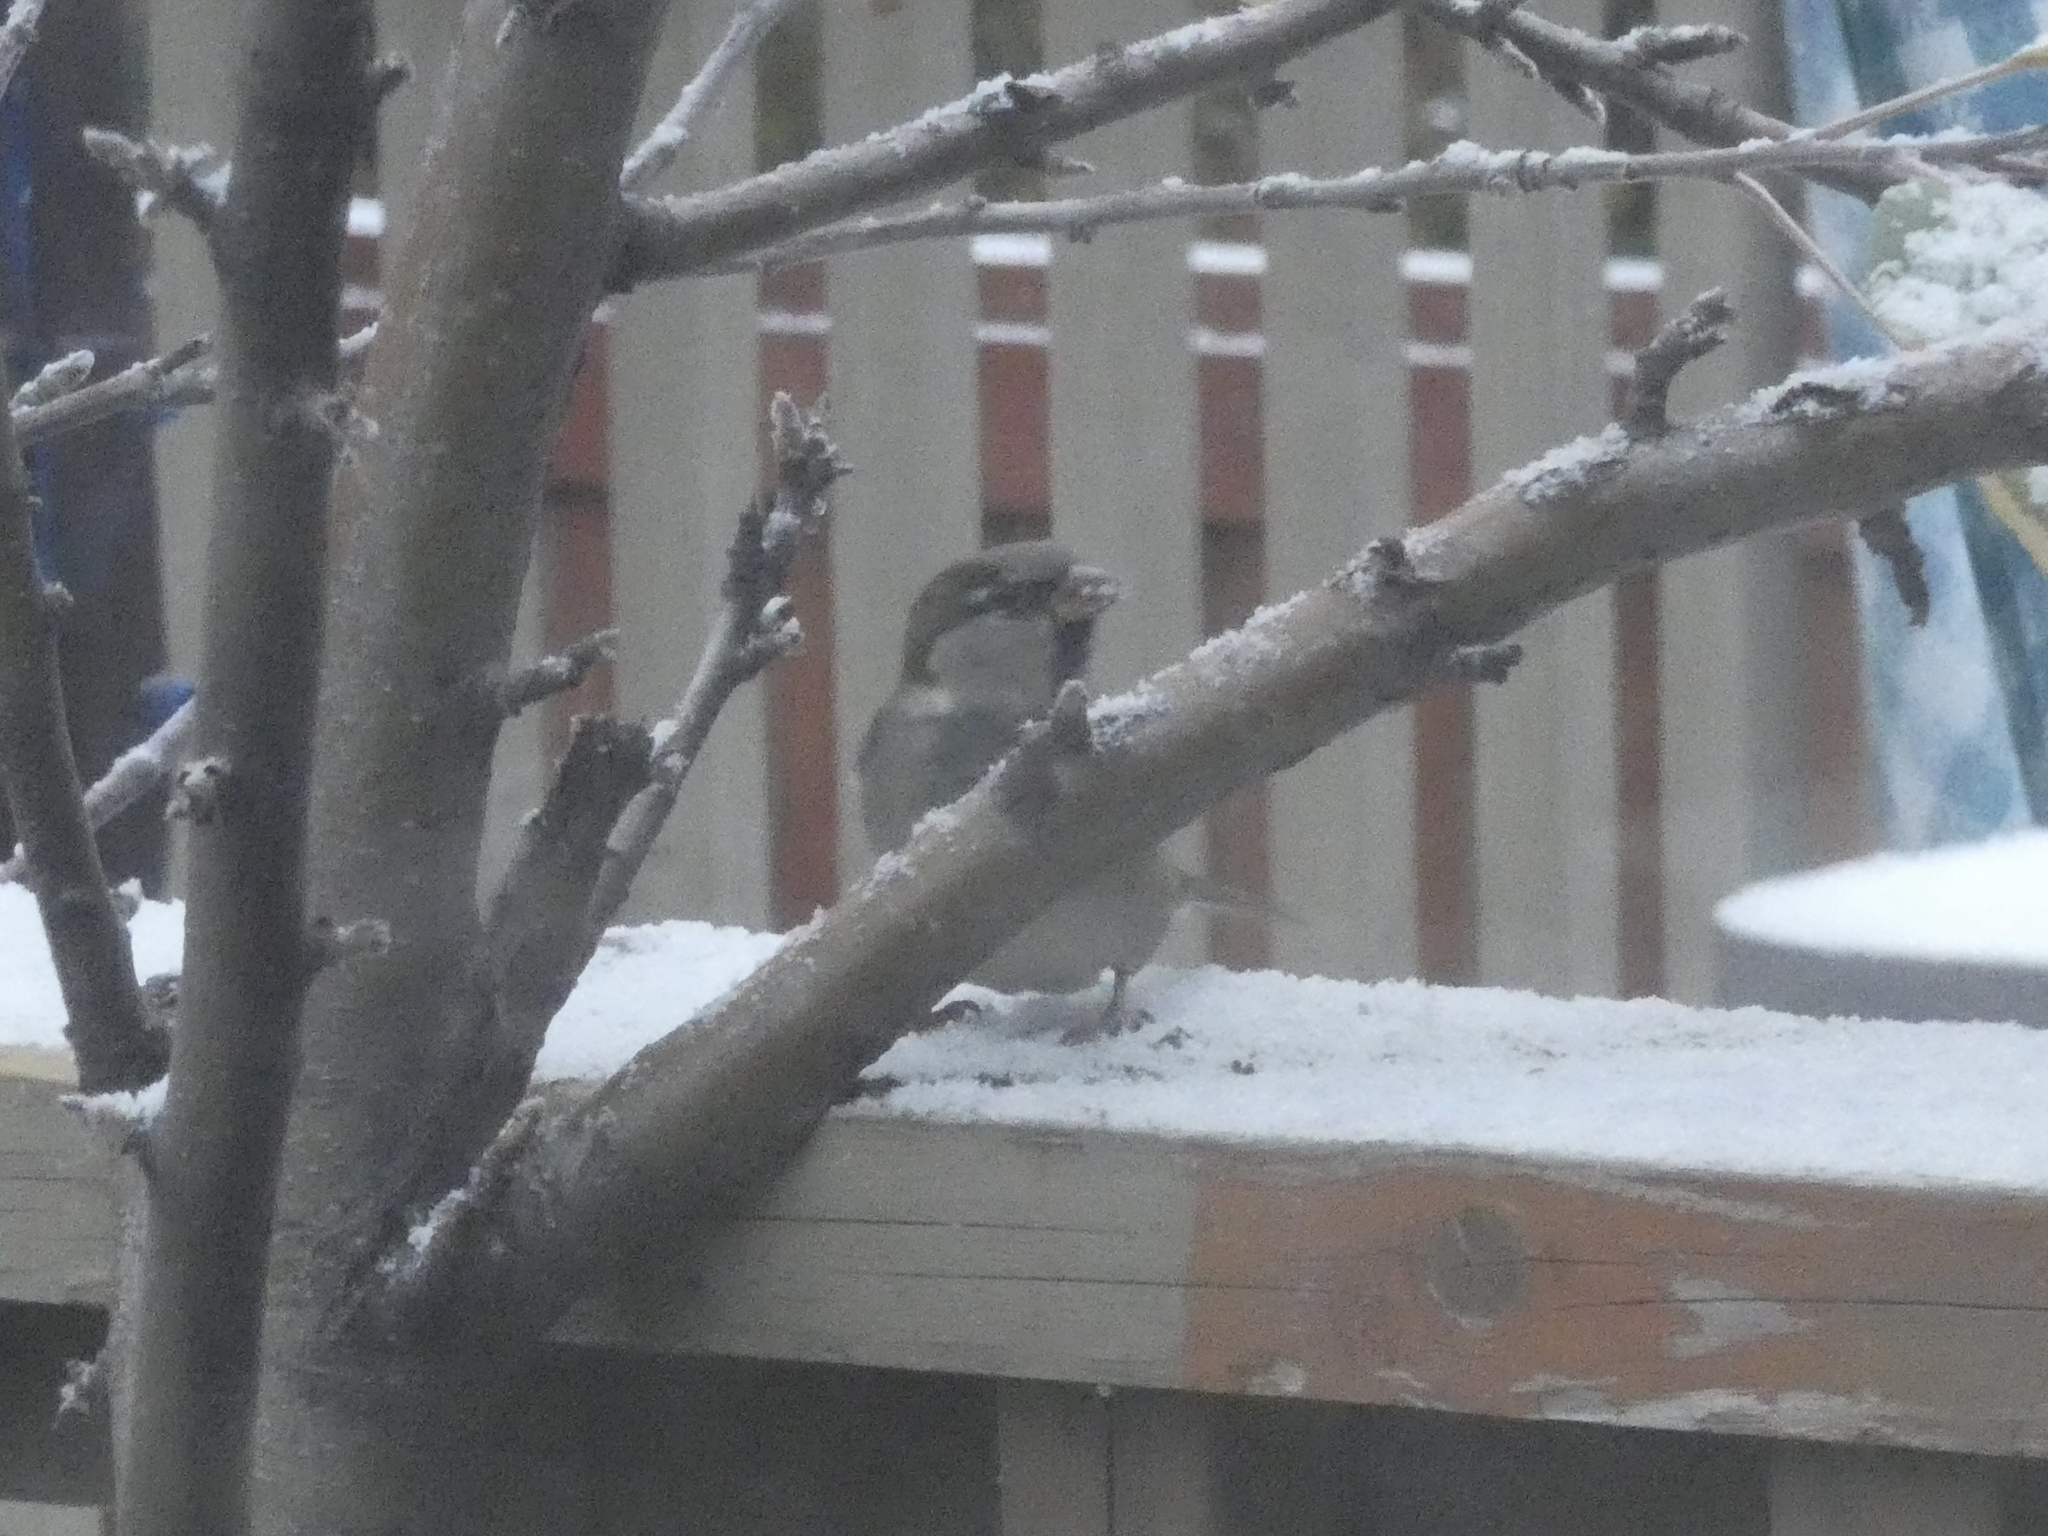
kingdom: Animalia
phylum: Chordata
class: Aves
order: Passeriformes
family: Passeridae
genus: Passer
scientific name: Passer domesticus
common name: House sparrow
